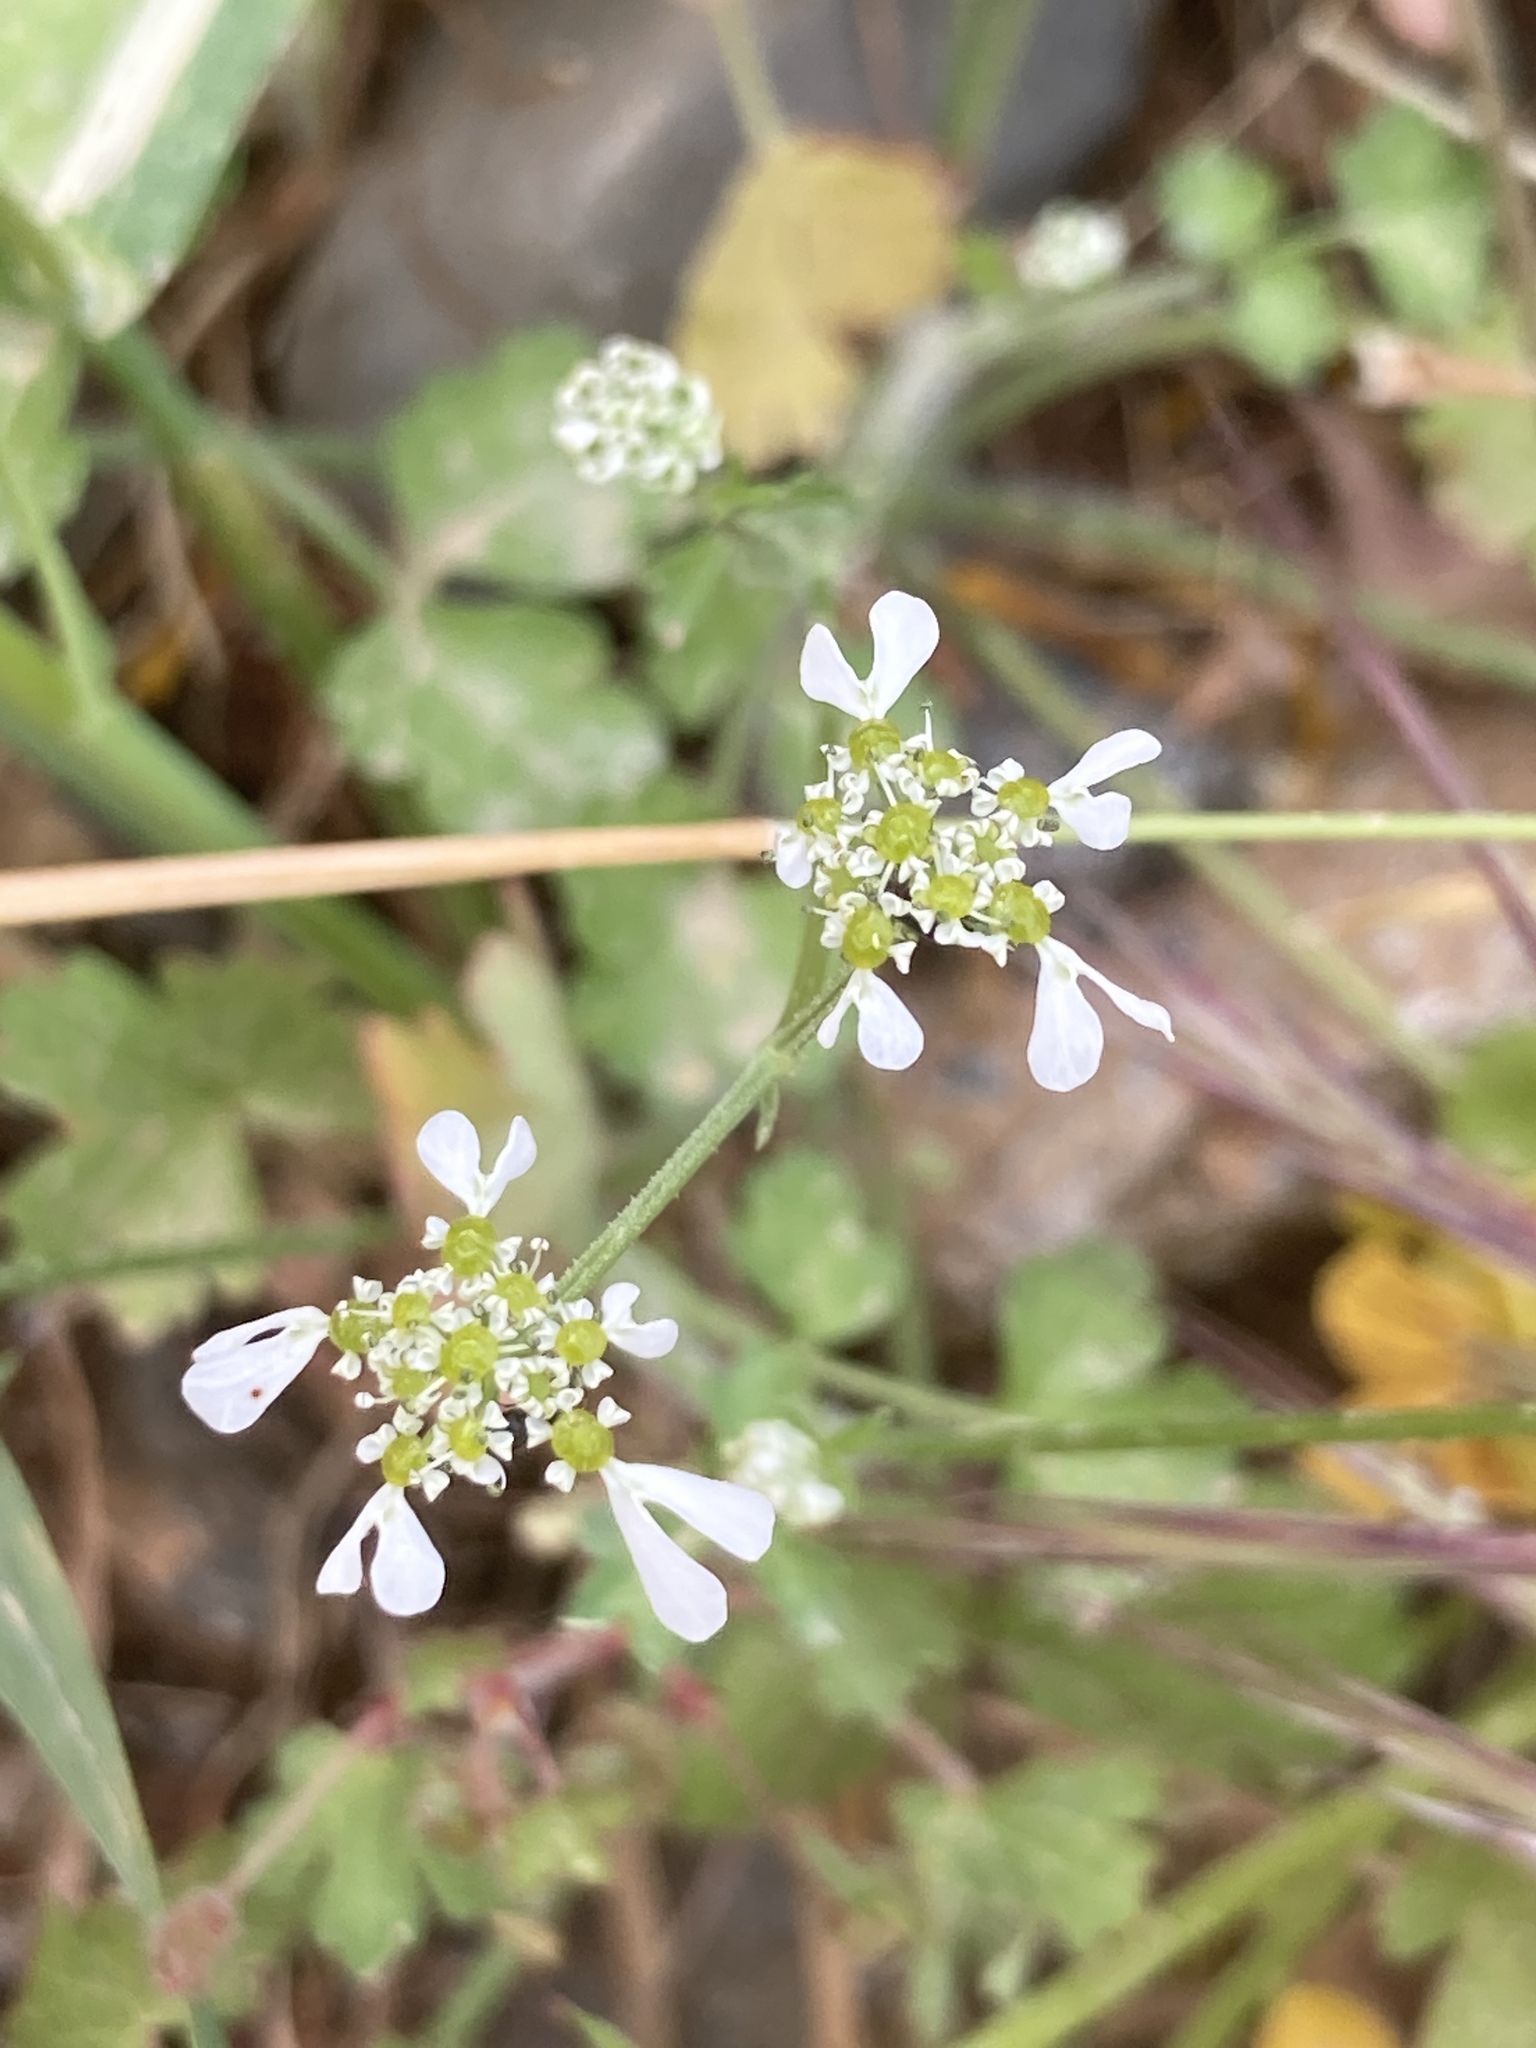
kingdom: Plantae
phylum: Tracheophyta
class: Magnoliopsida
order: Apiales
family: Apiaceae
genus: Tordylium
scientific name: Tordylium apulum
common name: Mediterranean hartwort
